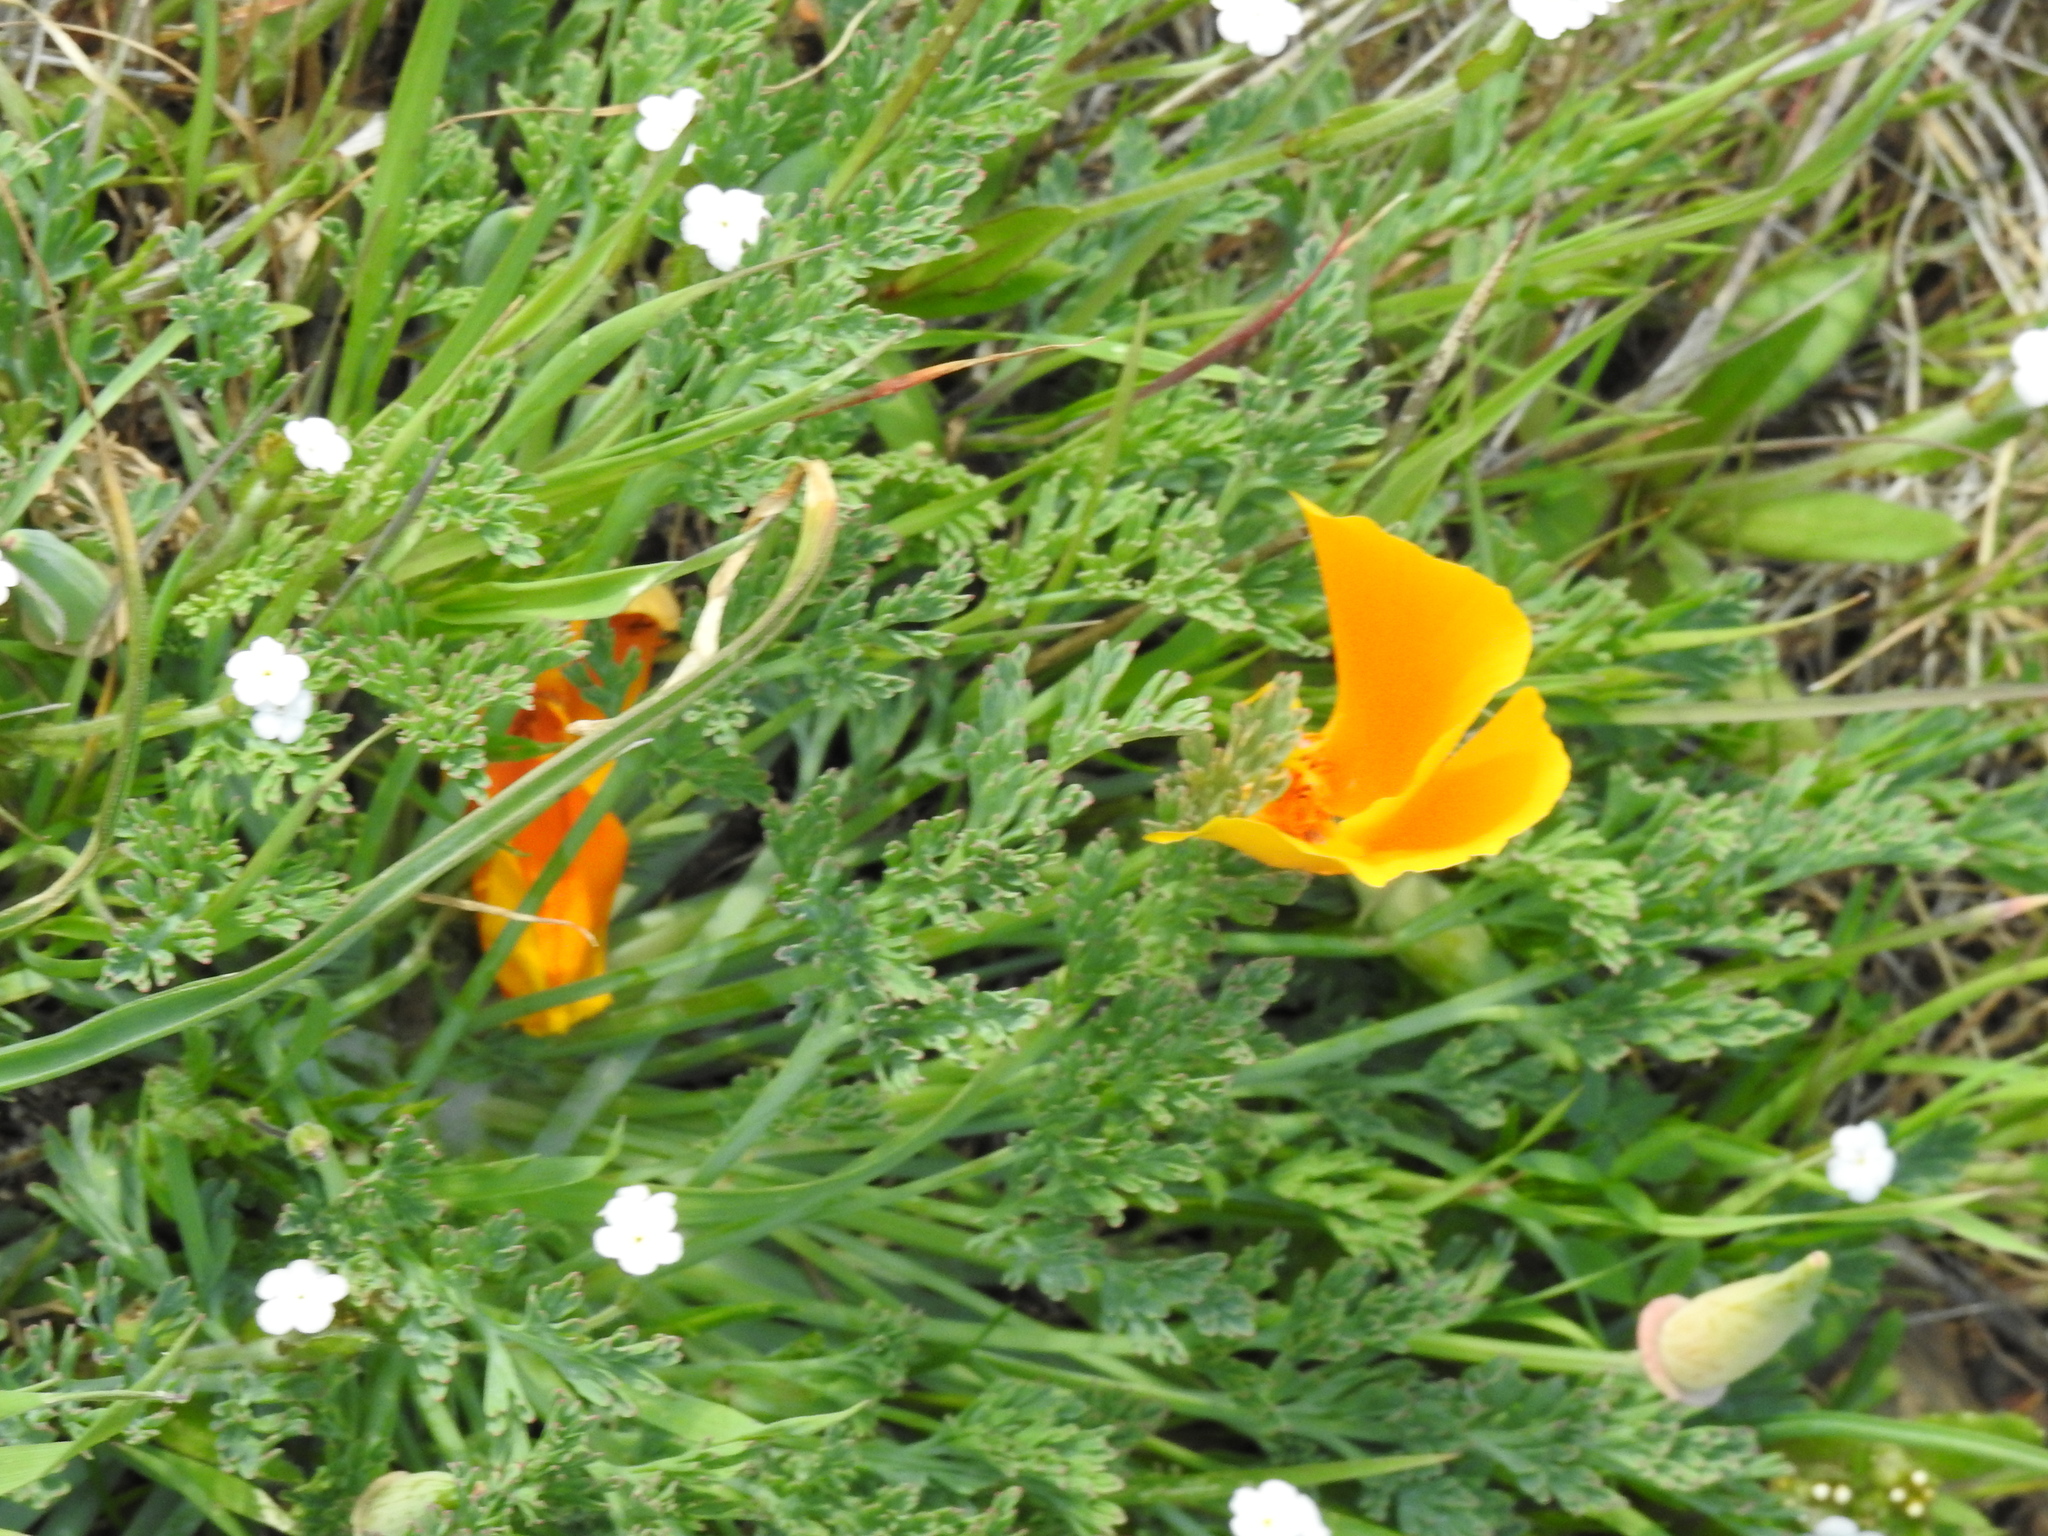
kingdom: Plantae
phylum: Tracheophyta
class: Magnoliopsida
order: Ranunculales
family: Papaveraceae
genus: Eschscholzia
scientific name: Eschscholzia californica
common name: California poppy
